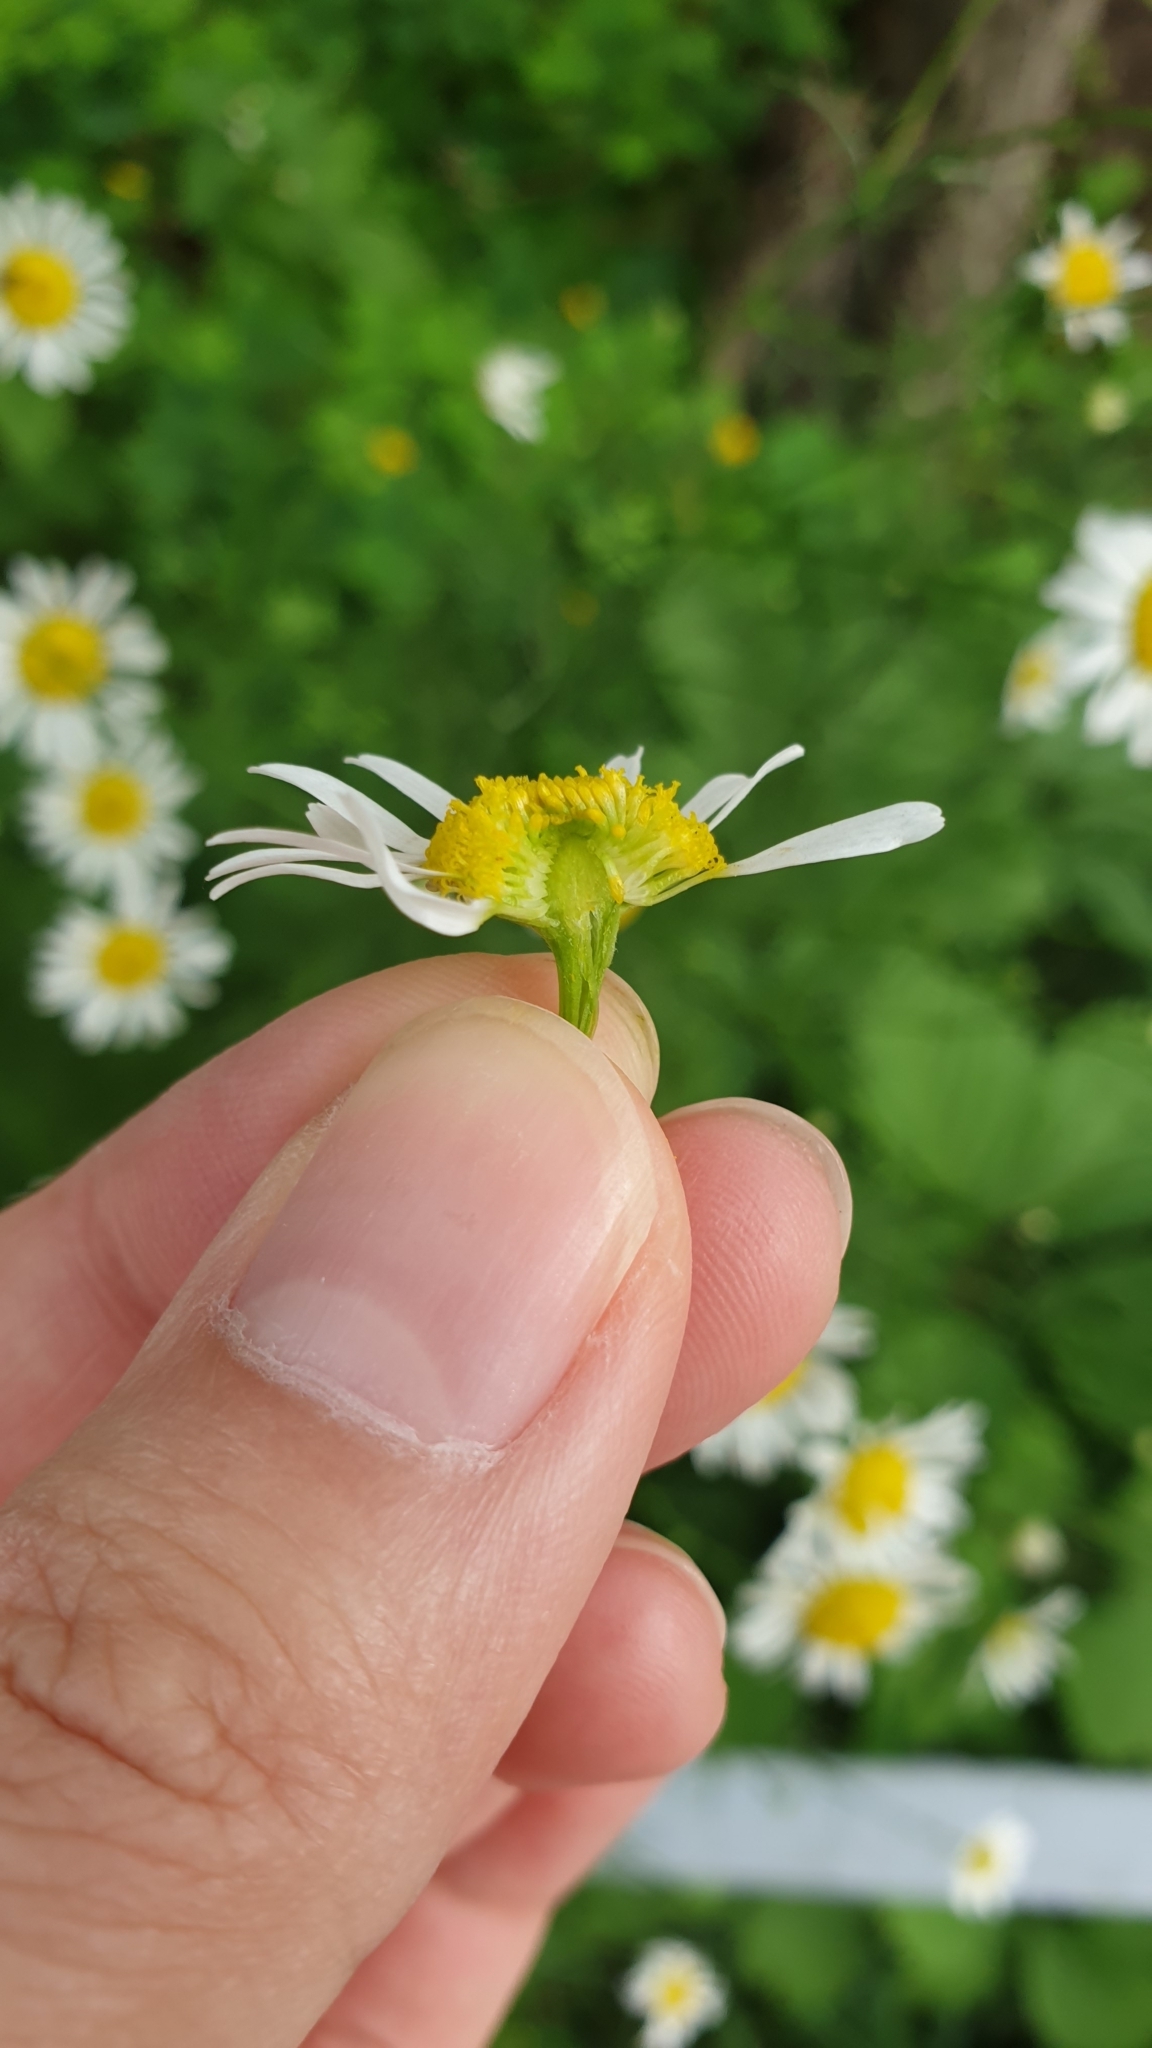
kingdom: Plantae
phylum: Tracheophyta
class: Magnoliopsida
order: Asterales
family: Asteraceae
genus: Tripleurospermum
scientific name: Tripleurospermum inodorum
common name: Scentless mayweed
